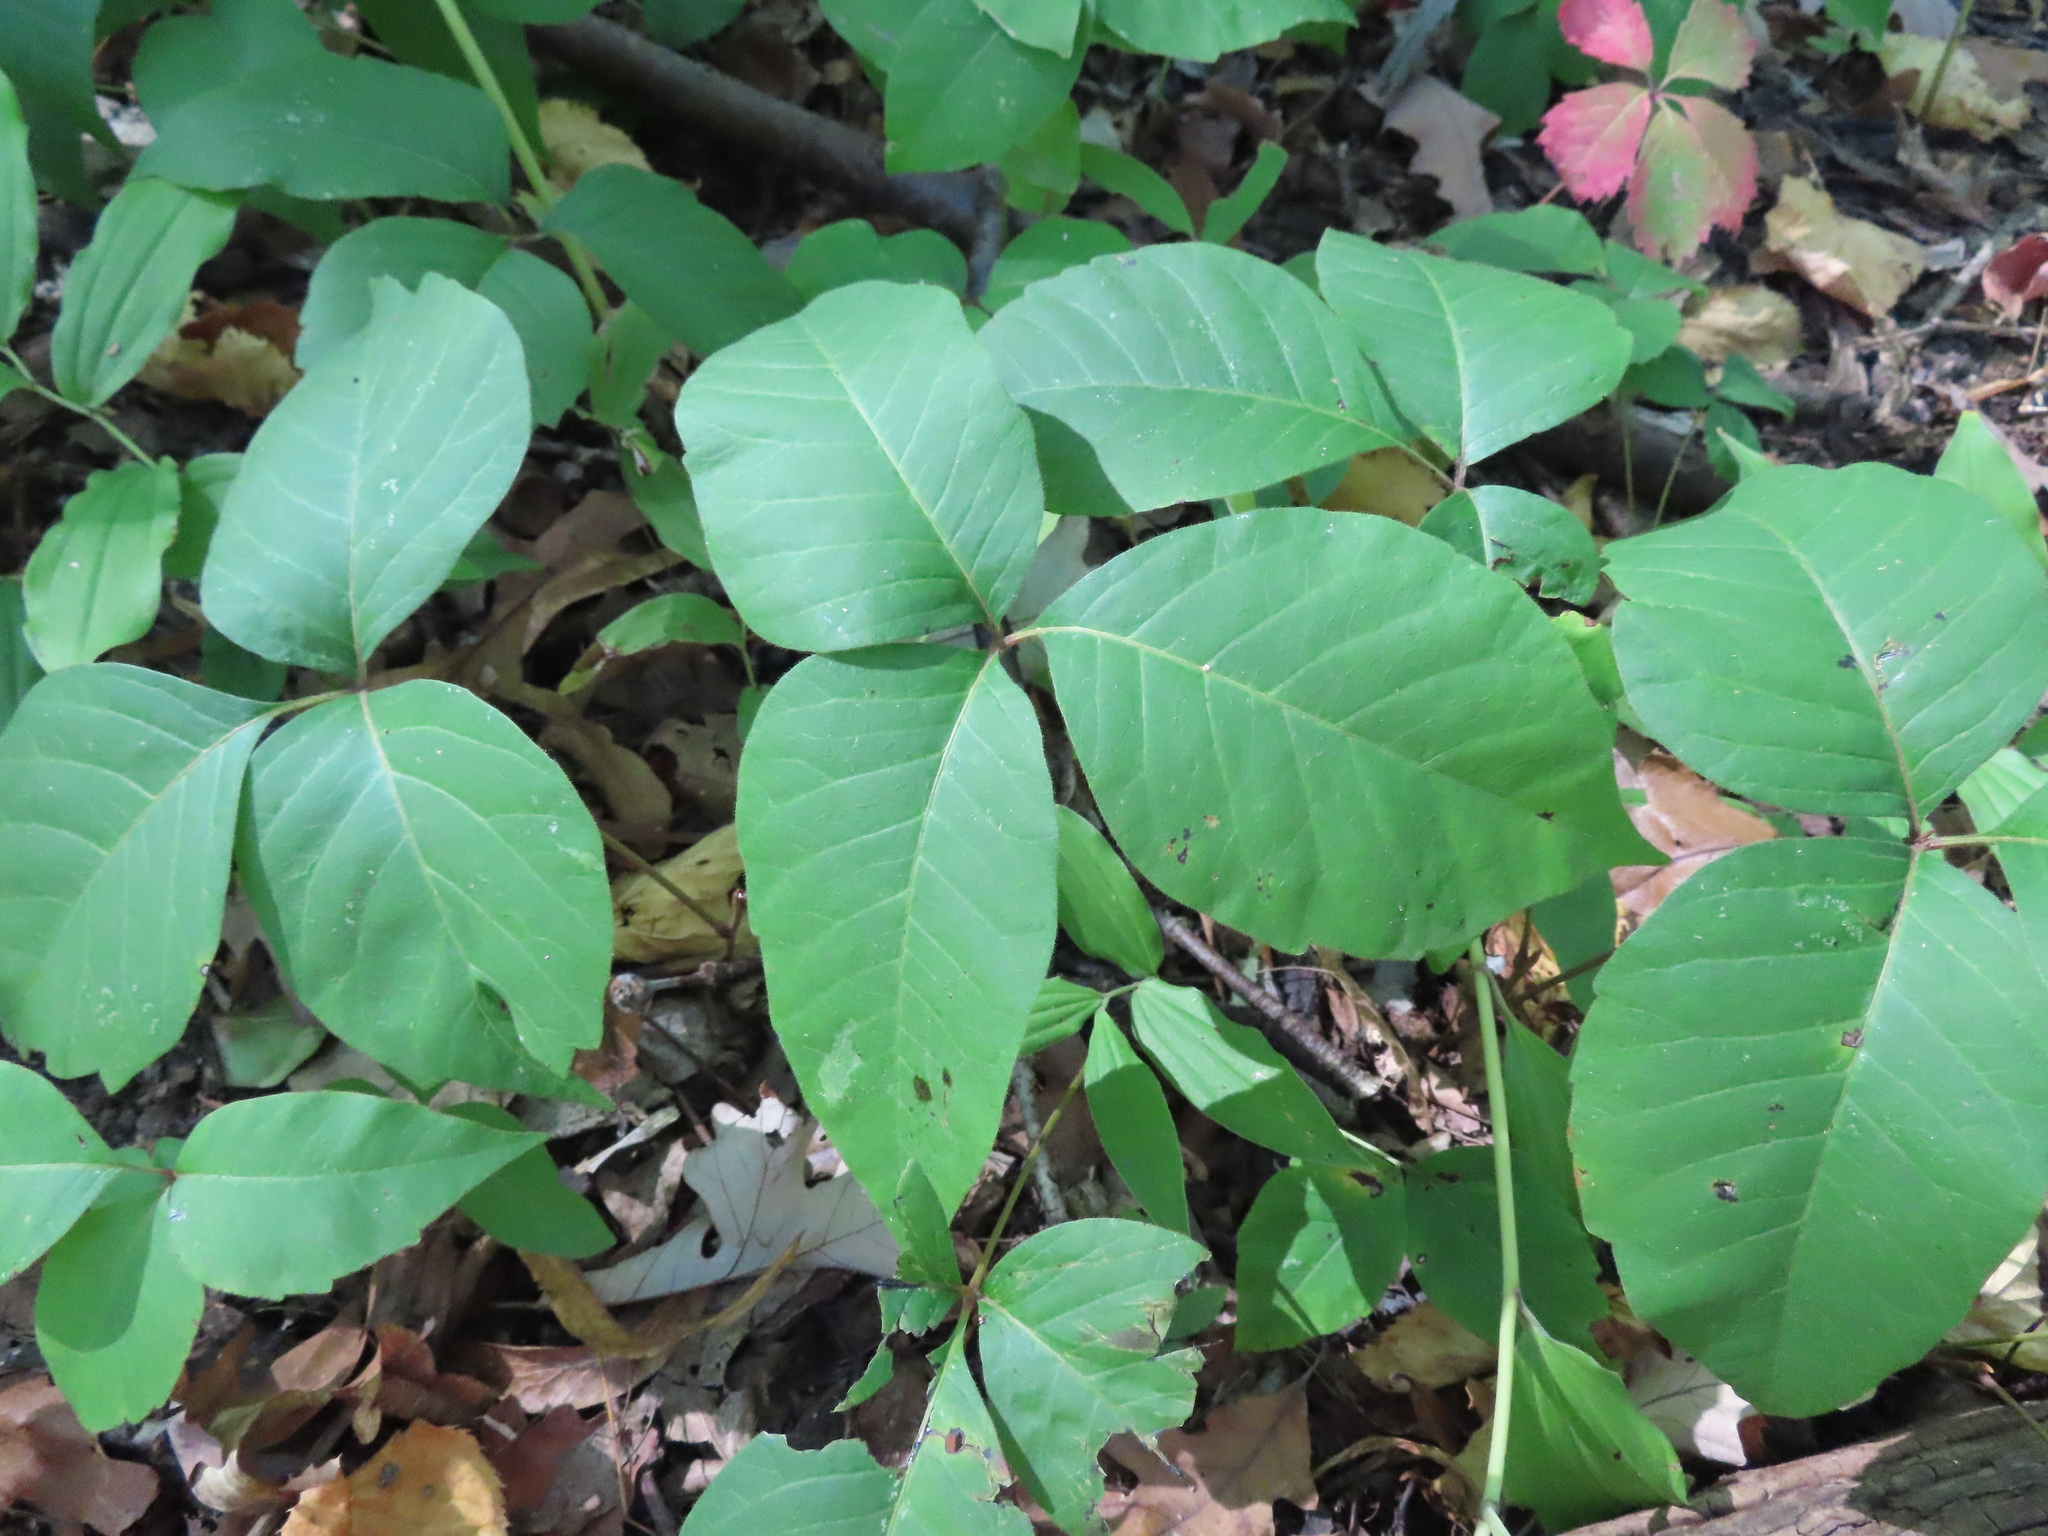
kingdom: Plantae
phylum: Tracheophyta
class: Magnoliopsida
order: Sapindales
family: Anacardiaceae
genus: Toxicodendron
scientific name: Toxicodendron radicans
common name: Poison ivy
